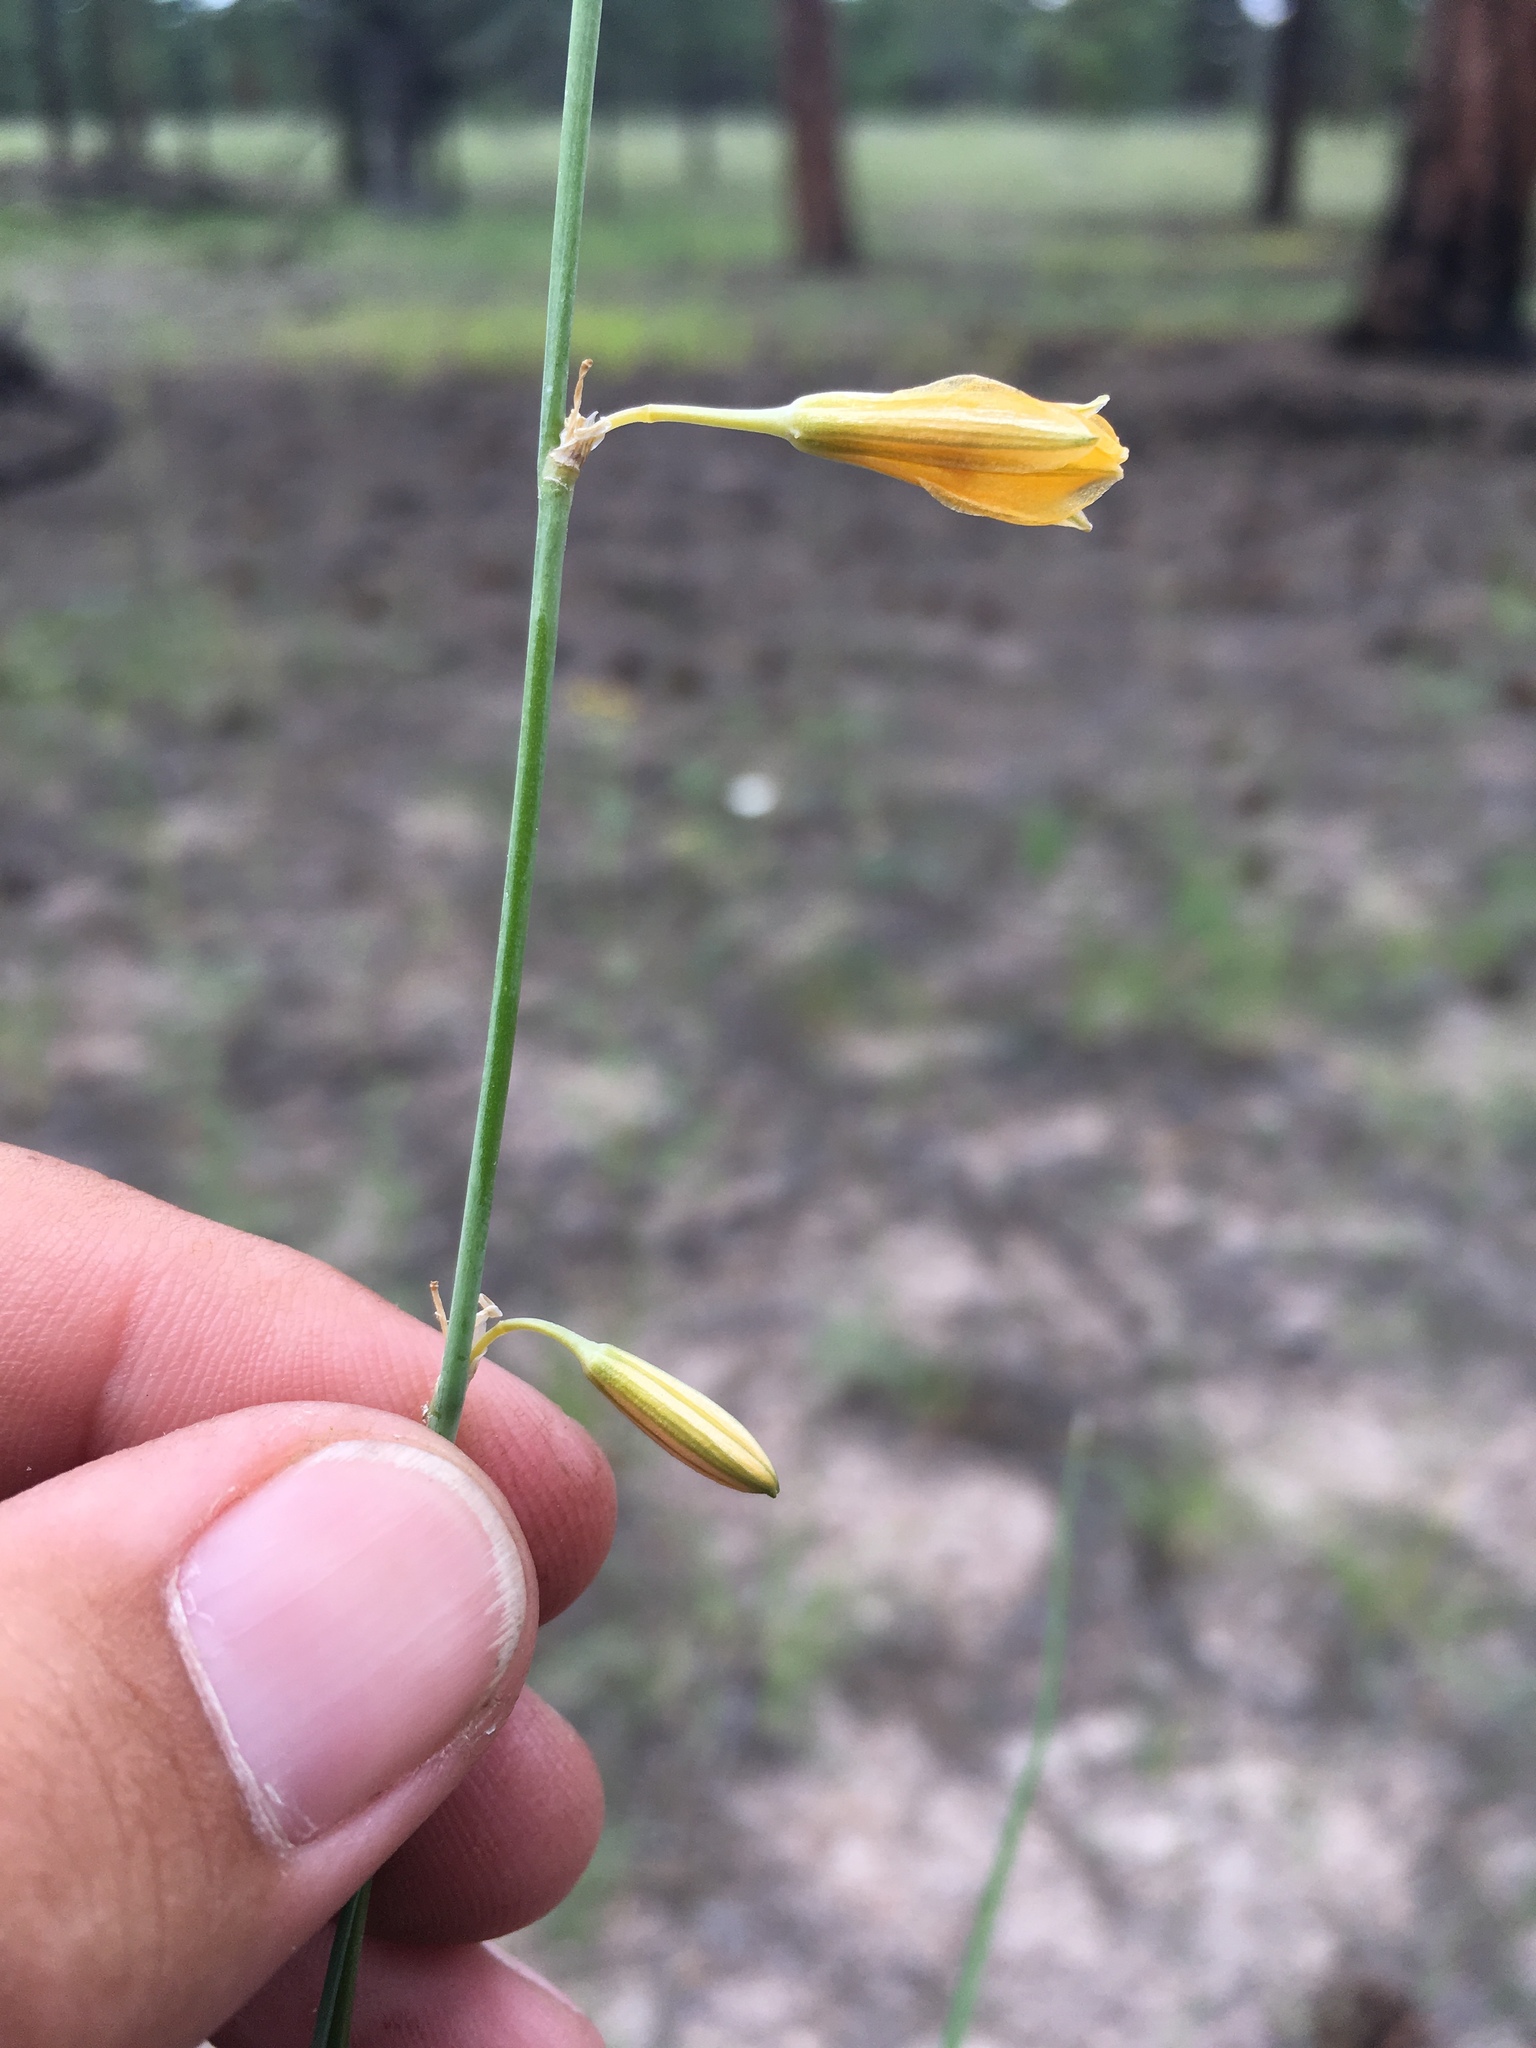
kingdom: Plantae
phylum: Tracheophyta
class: Liliopsida
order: Asparagales
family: Asparagaceae
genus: Echeandia
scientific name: Echeandia flavescens
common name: Amberlily
